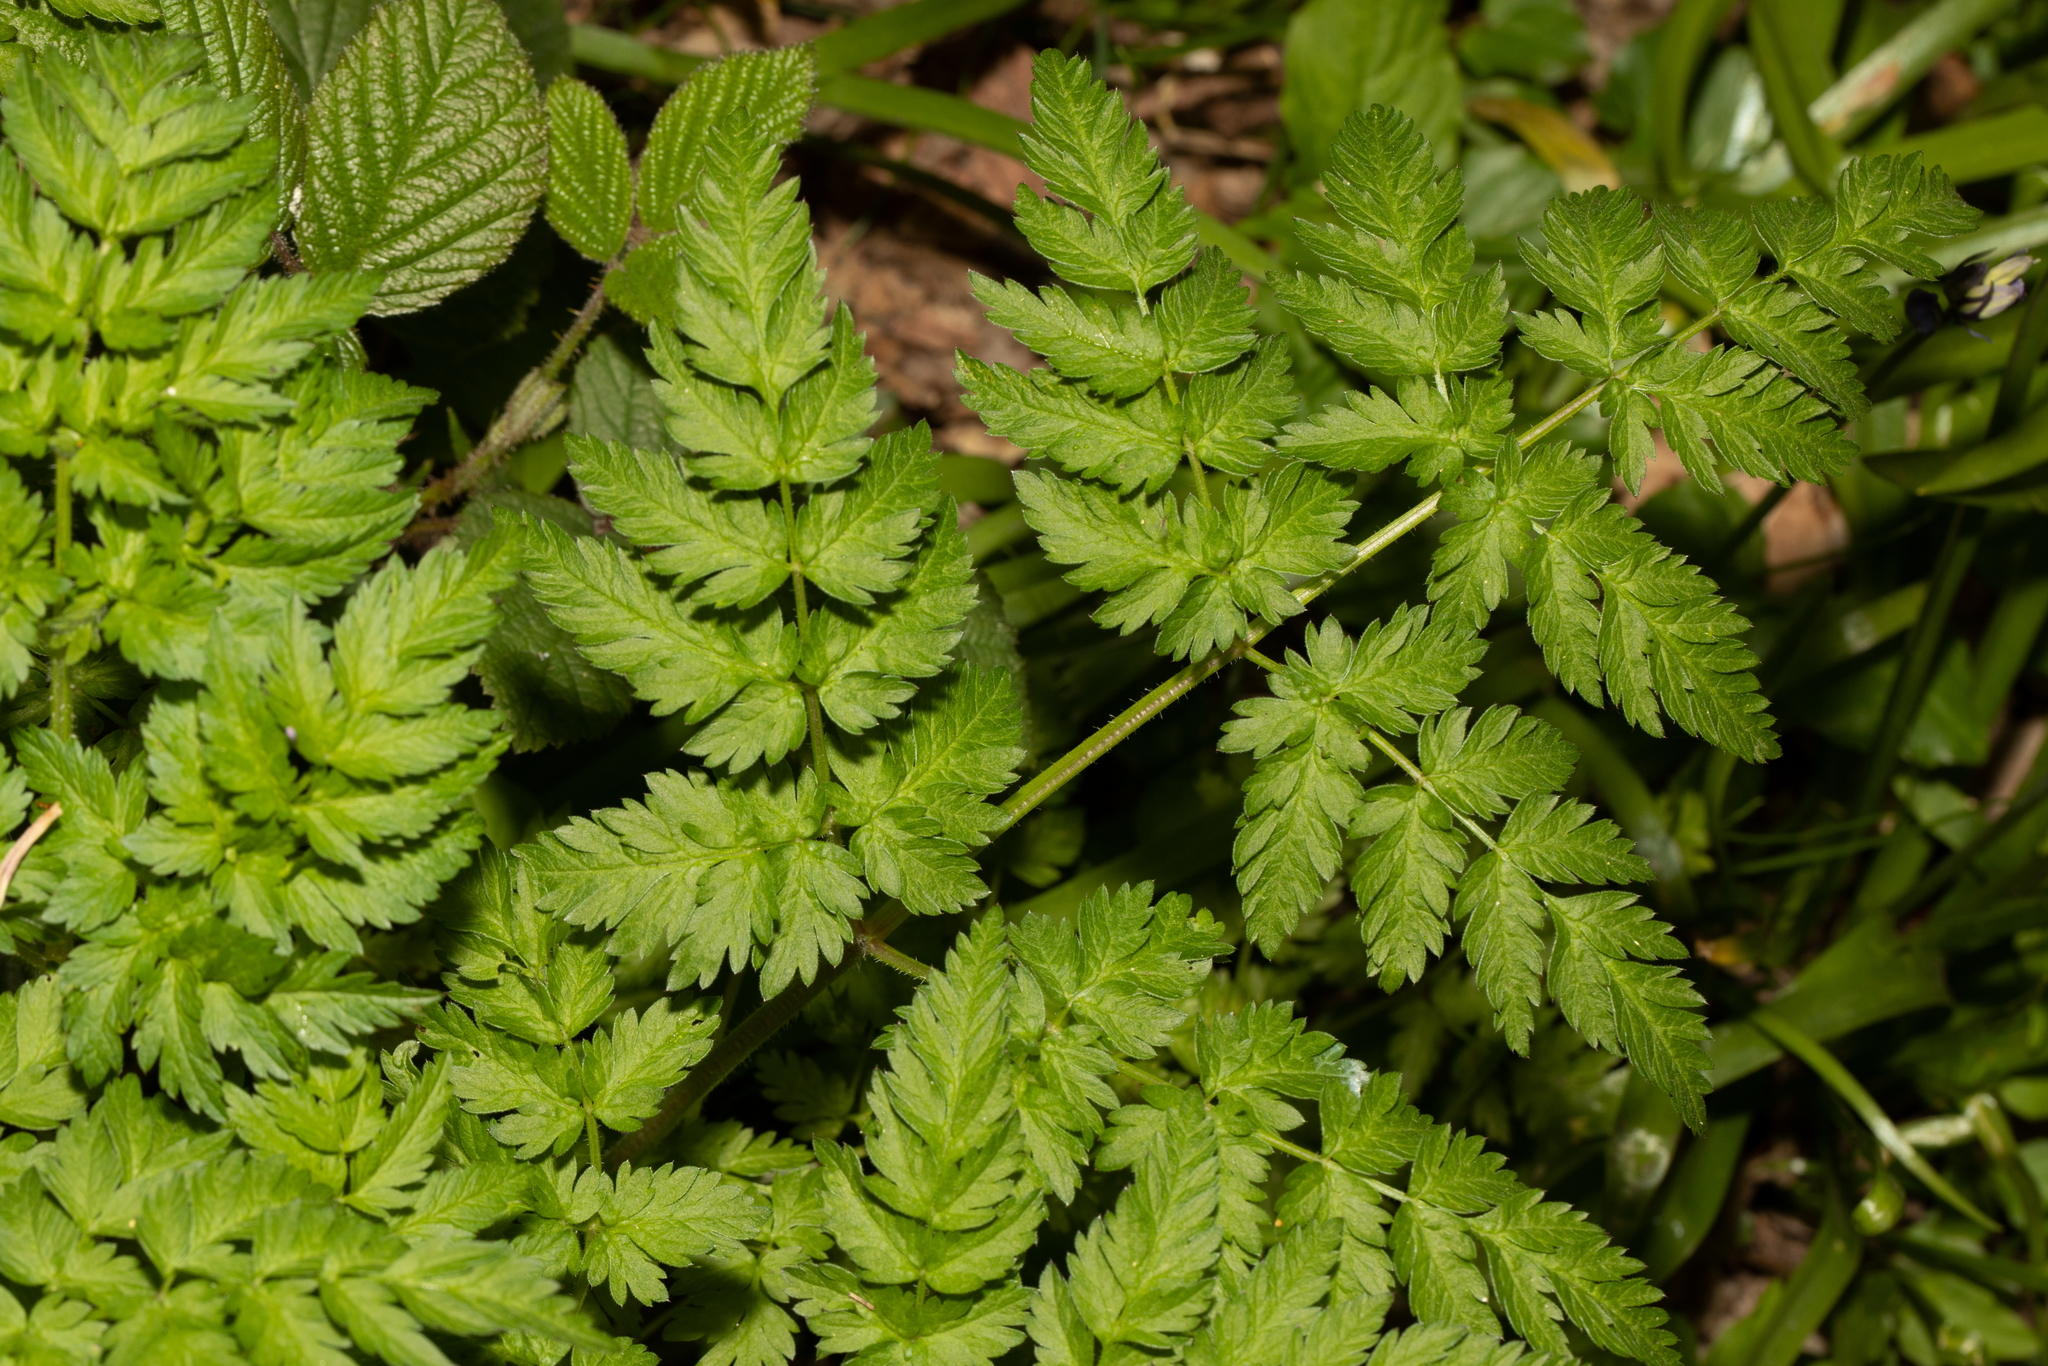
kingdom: Plantae
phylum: Tracheophyta
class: Magnoliopsida
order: Apiales
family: Apiaceae
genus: Anthriscus
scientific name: Anthriscus sylvestris
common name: Cow parsley
